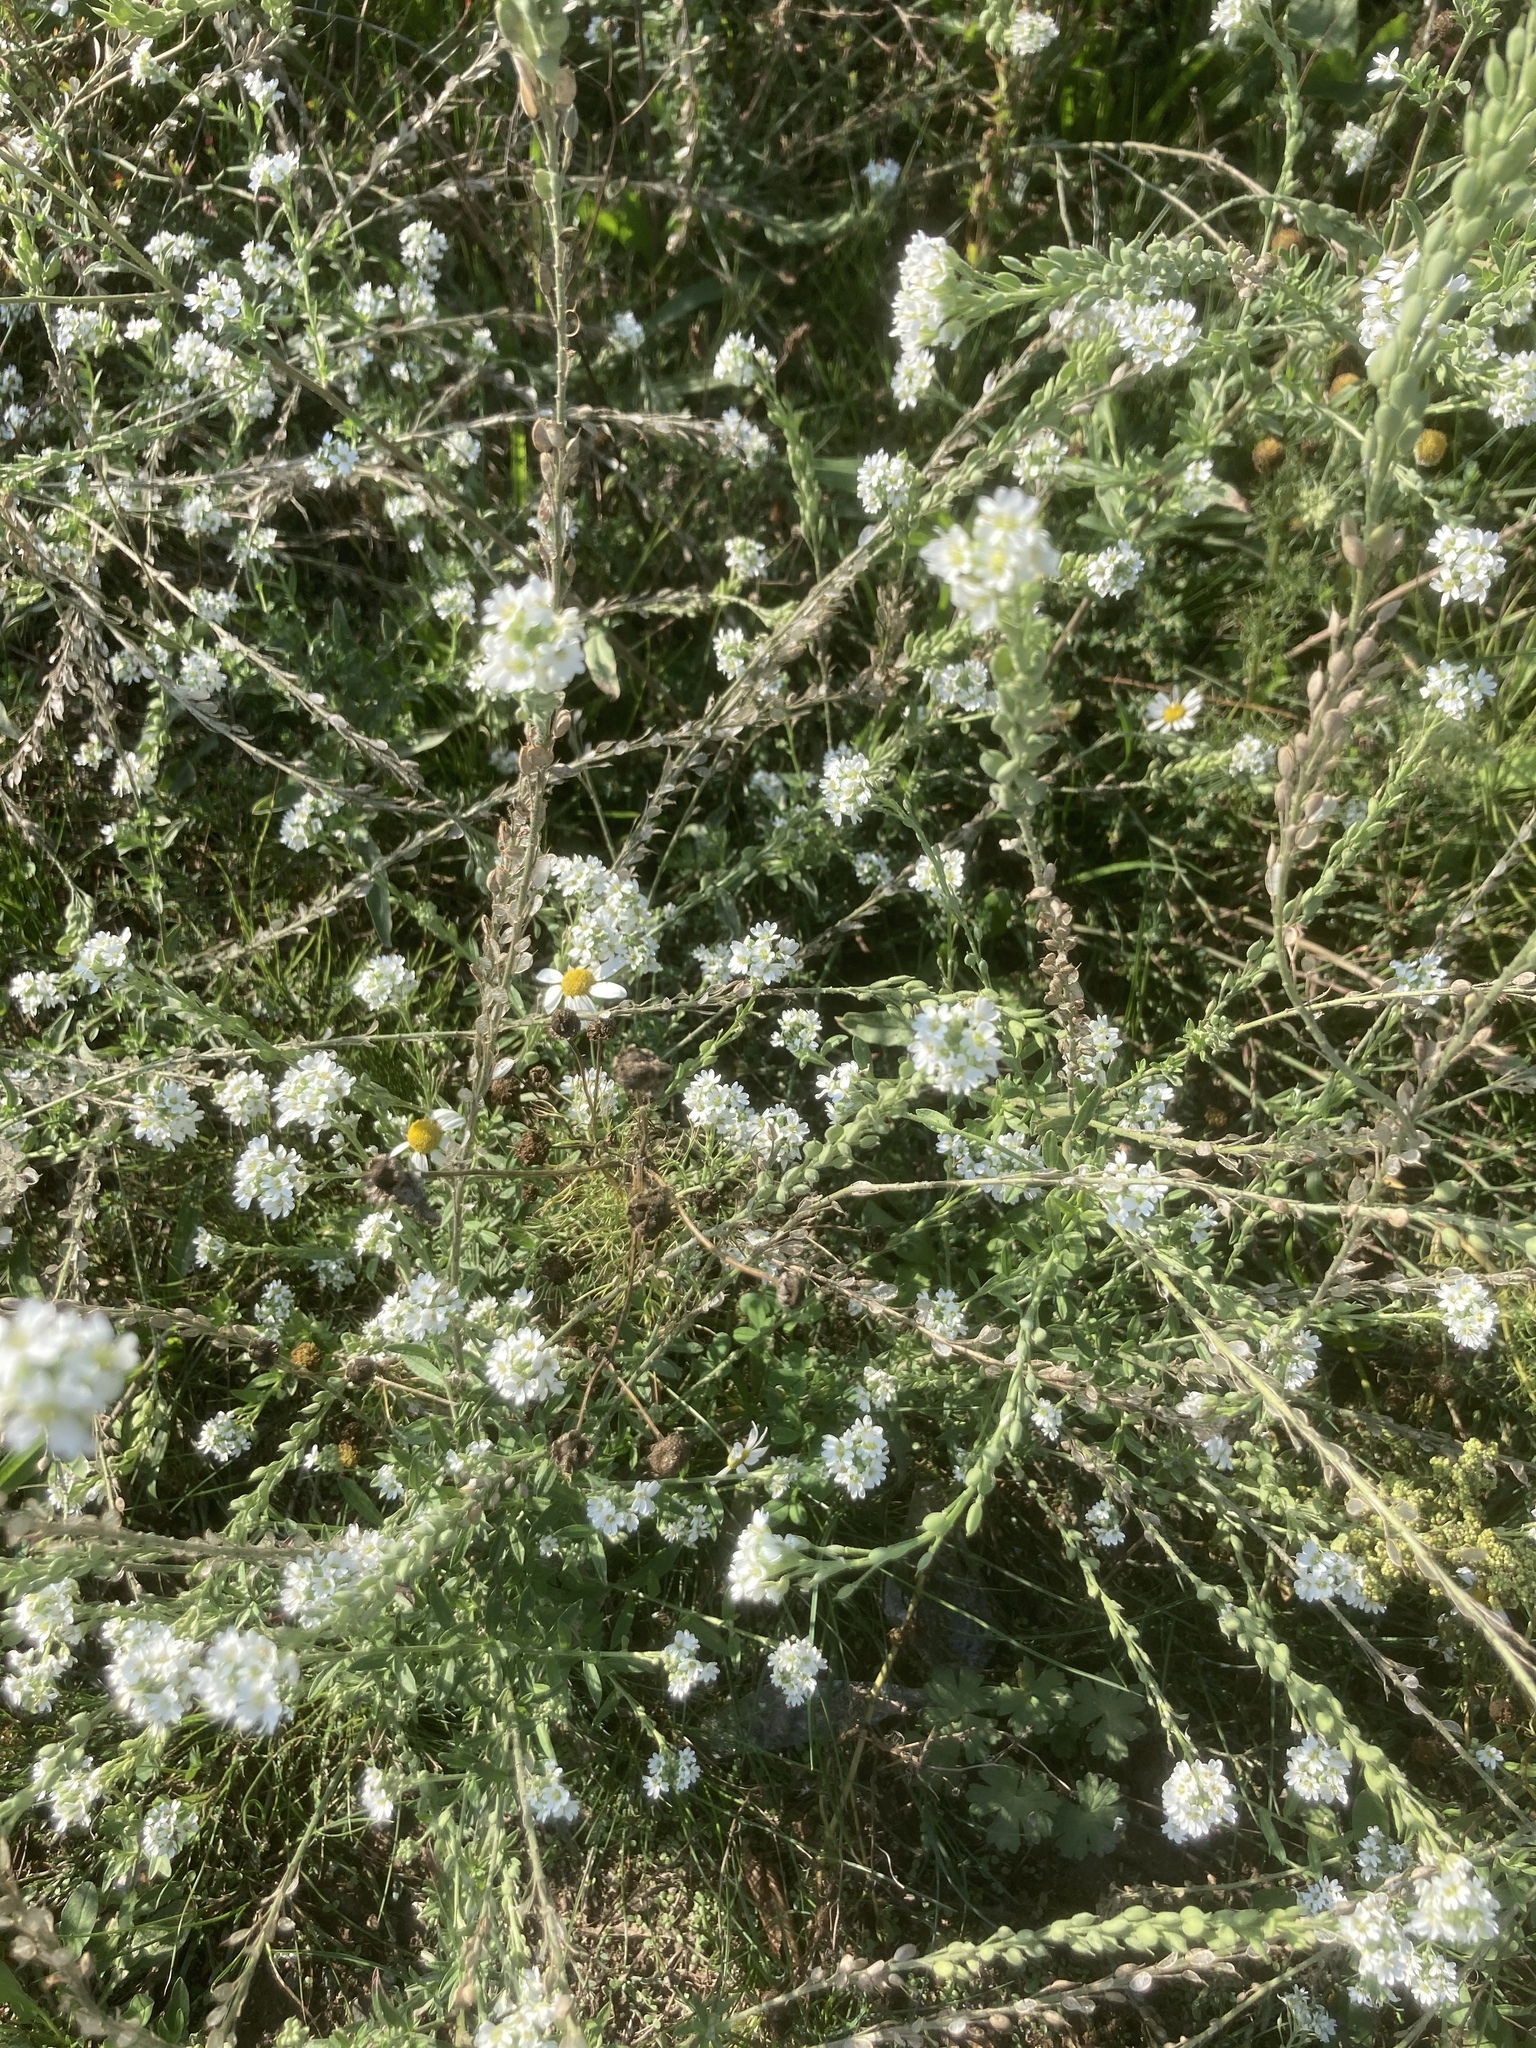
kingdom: Plantae
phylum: Tracheophyta
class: Magnoliopsida
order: Brassicales
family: Brassicaceae
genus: Berteroa
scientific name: Berteroa incana
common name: Hoary alison
